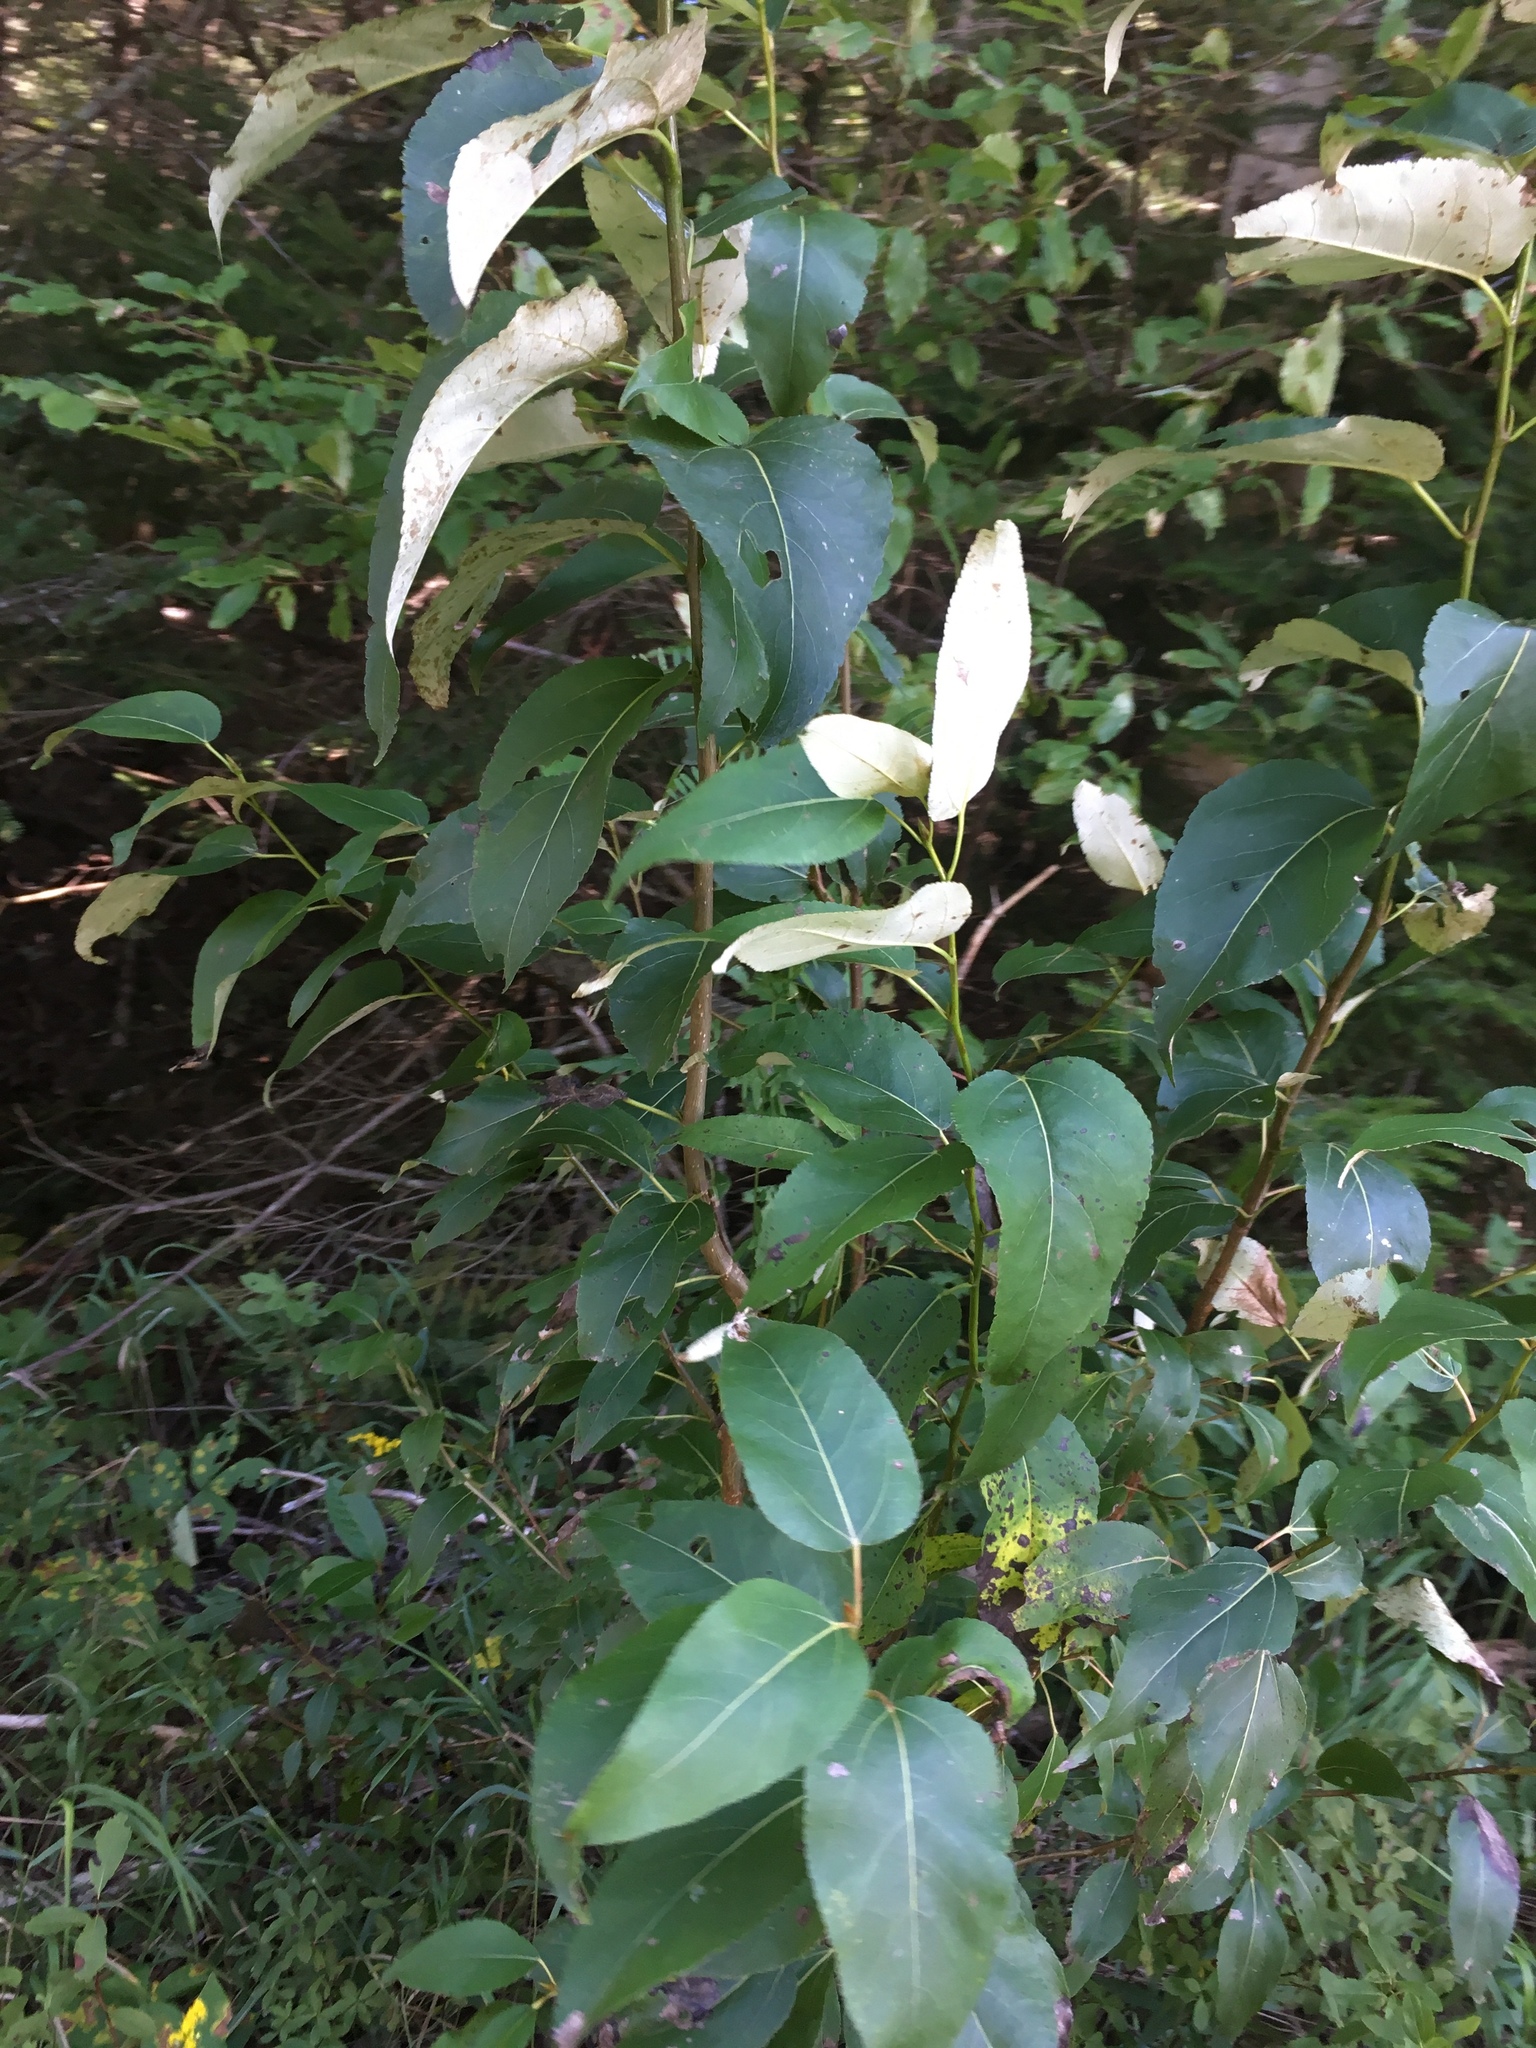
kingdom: Plantae
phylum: Tracheophyta
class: Magnoliopsida
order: Malpighiales
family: Salicaceae
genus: Populus
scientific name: Populus balsamifera
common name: Balsam poplar
